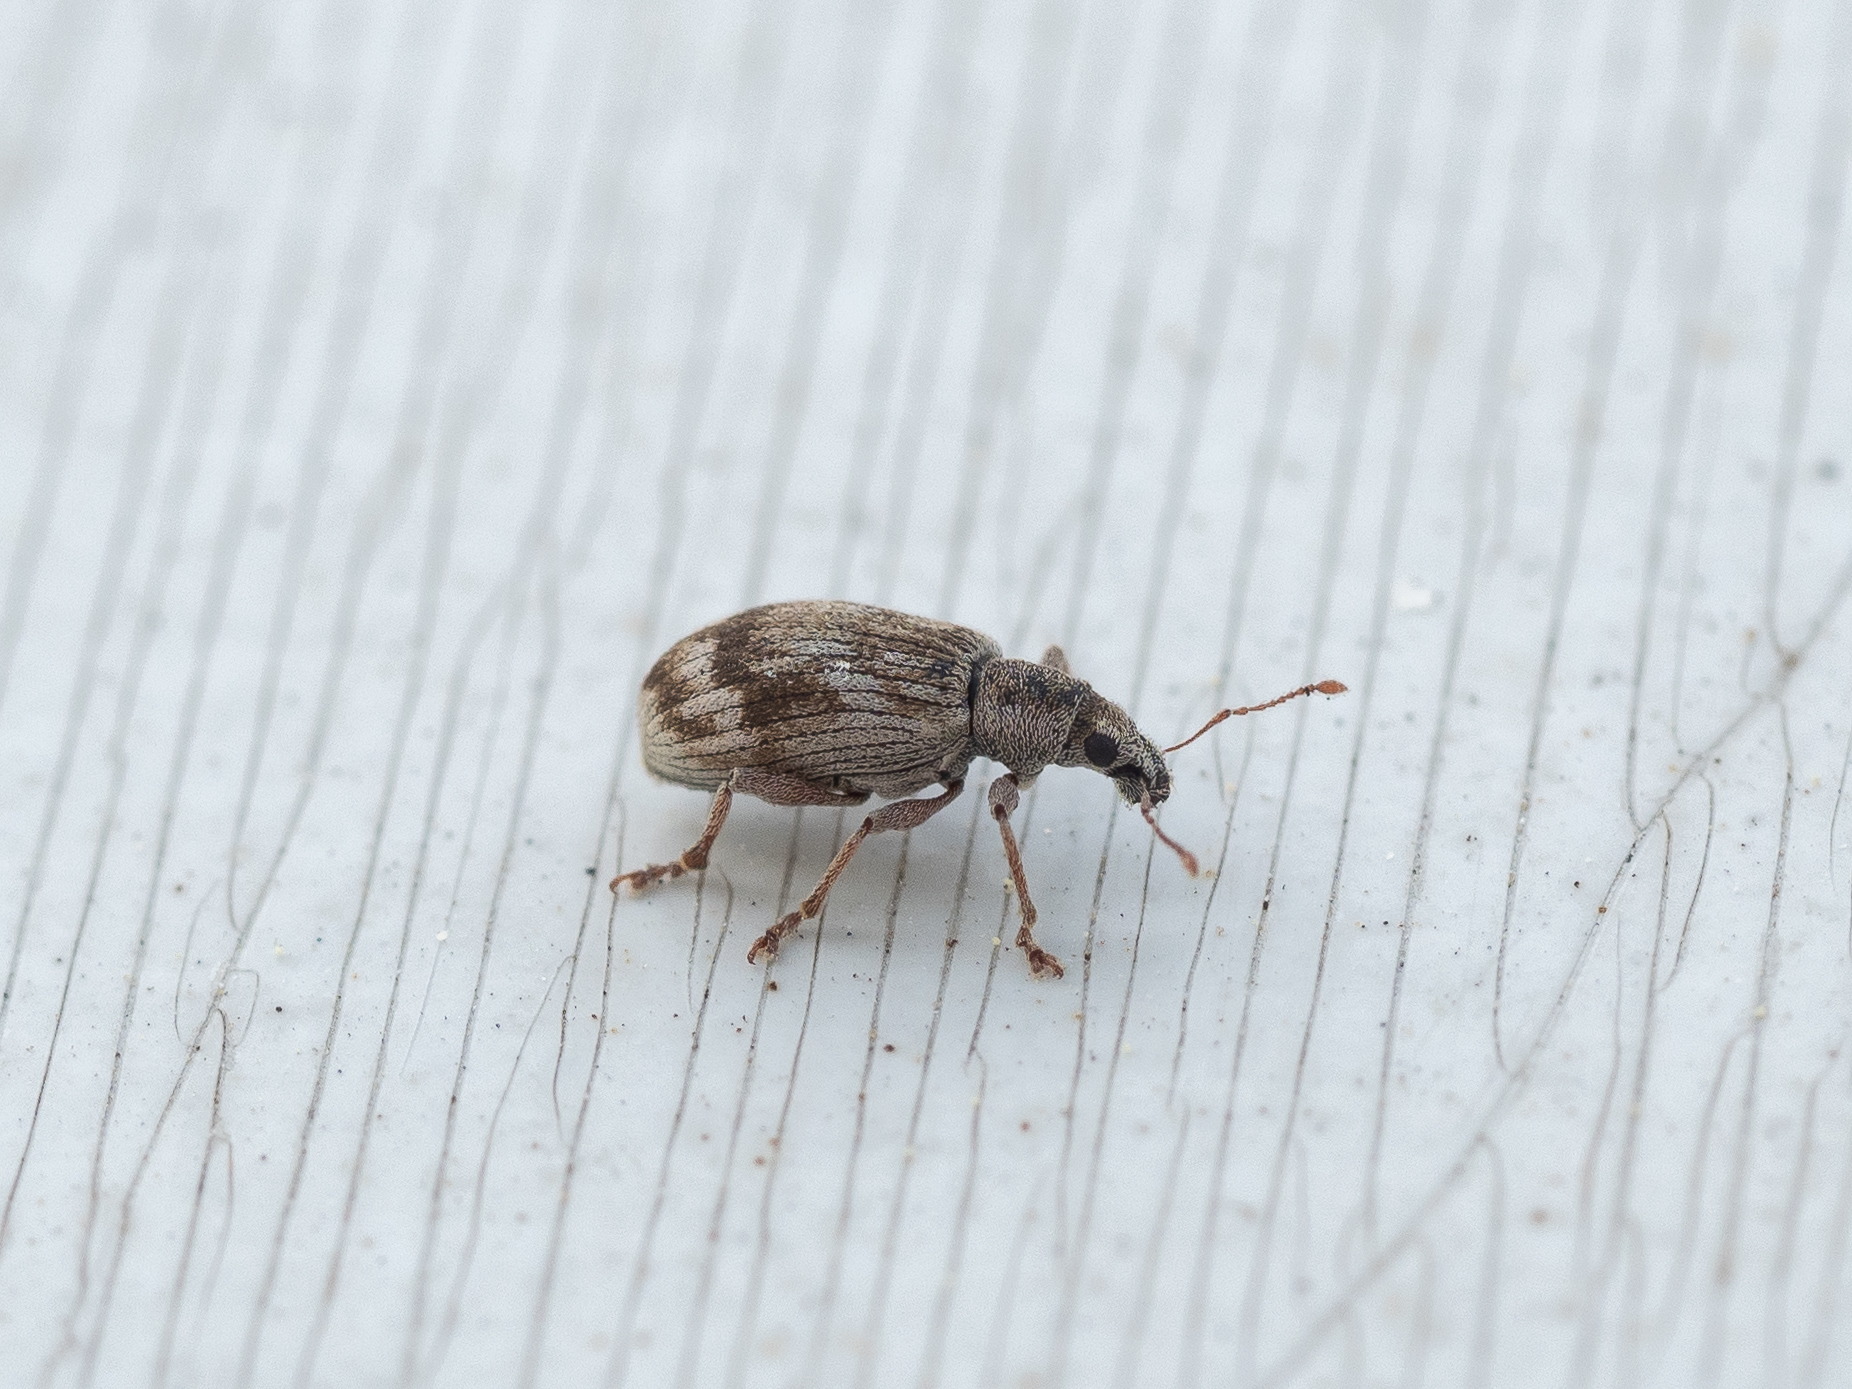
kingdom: Animalia
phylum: Arthropoda
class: Insecta
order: Coleoptera
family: Curculionidae
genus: Polydrusus
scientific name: Polydrusus tereticollis
